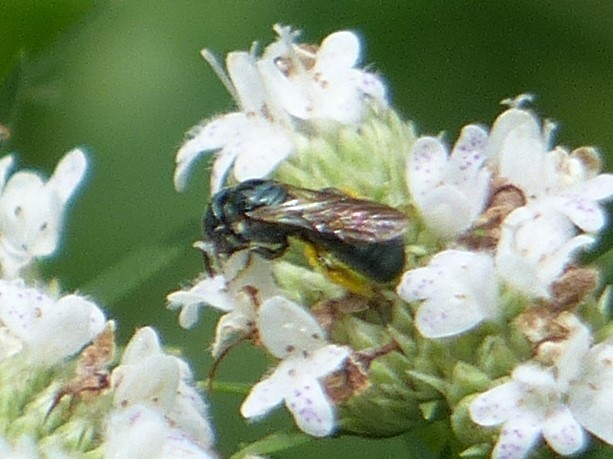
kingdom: Animalia
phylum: Arthropoda
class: Insecta
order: Hymenoptera
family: Apidae
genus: Zadontomerus
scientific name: Zadontomerus
